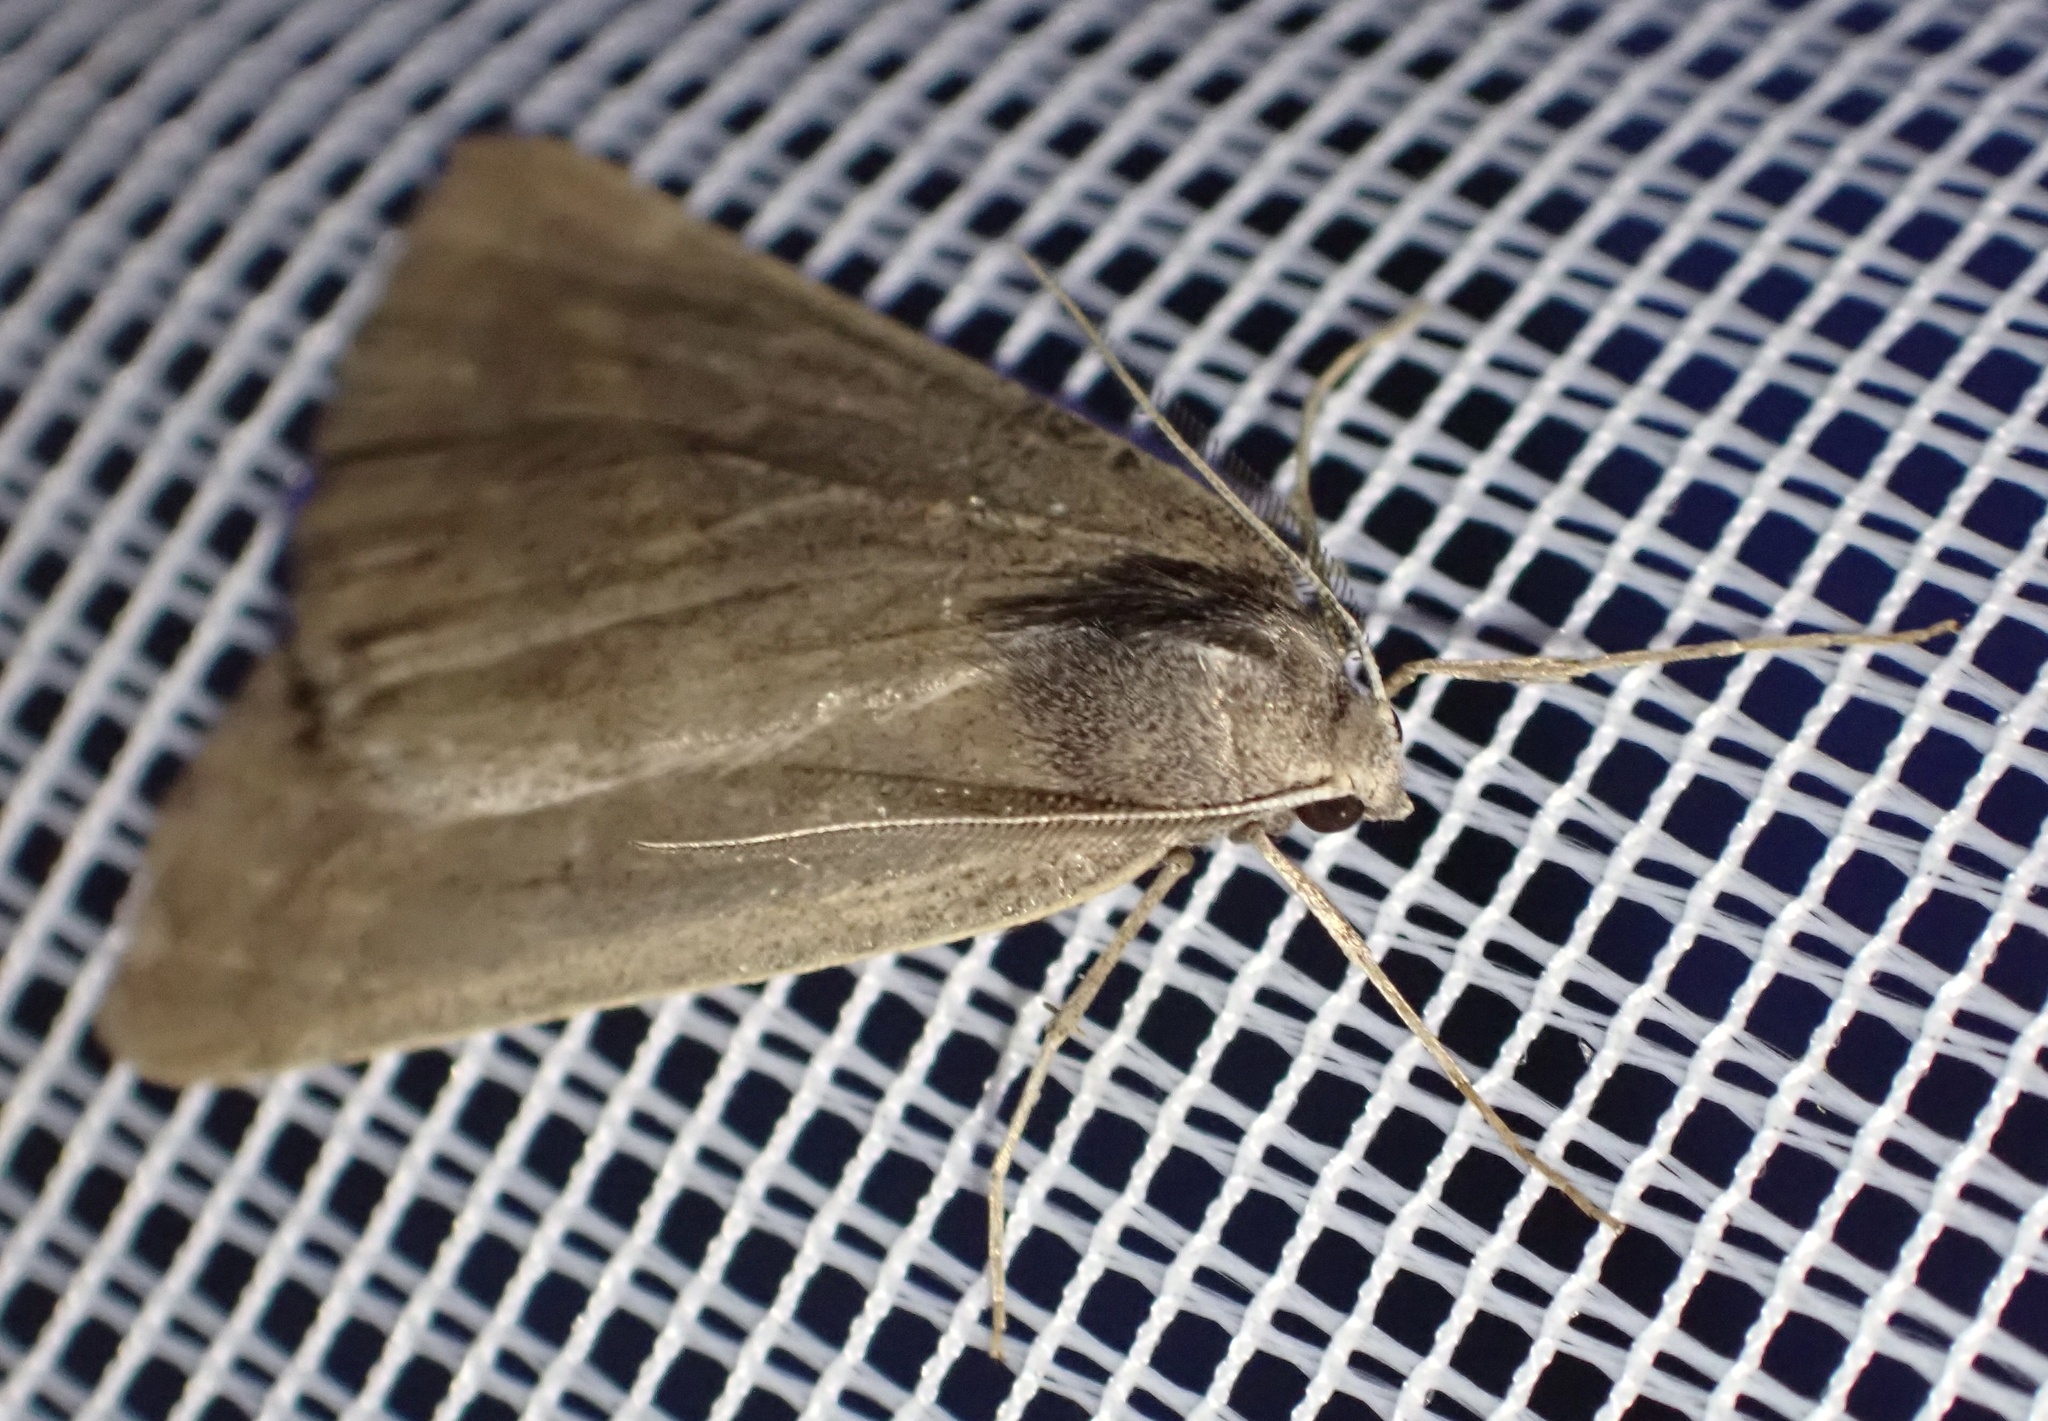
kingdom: Animalia
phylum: Arthropoda
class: Insecta
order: Lepidoptera
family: Geometridae
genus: Chemerina
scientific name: Chemerina caliginearia
